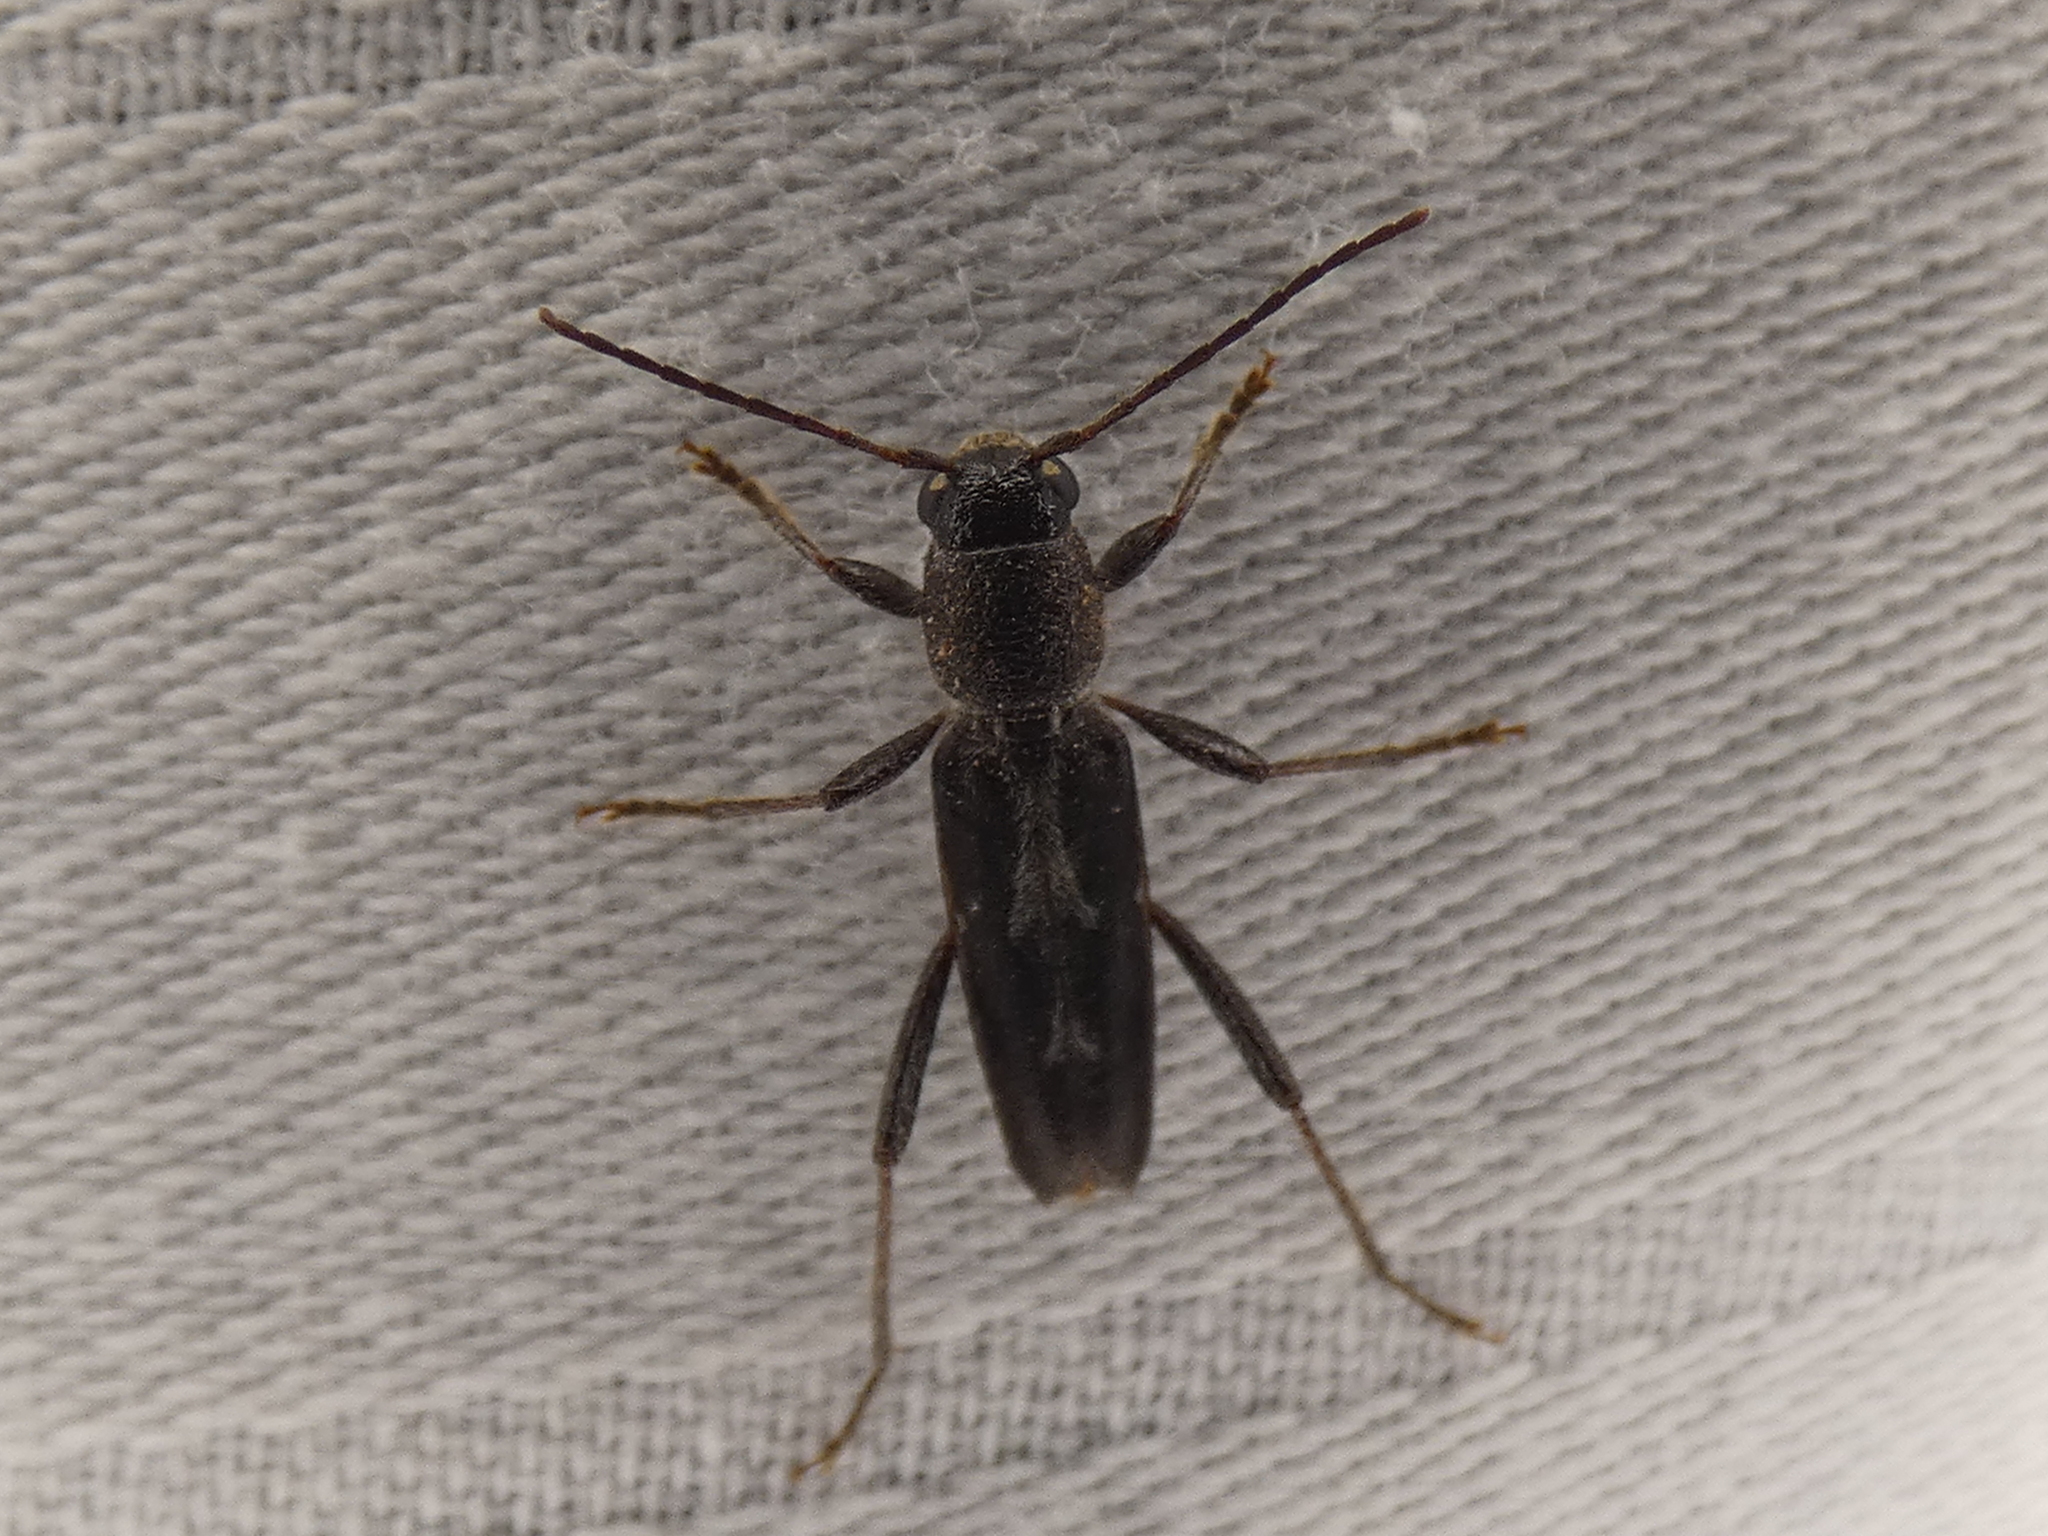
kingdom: Animalia
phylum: Arthropoda
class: Insecta
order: Coleoptera
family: Cerambycidae
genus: Xylotrechus
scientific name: Xylotrechus sagittatus
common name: Arrowhead borer
